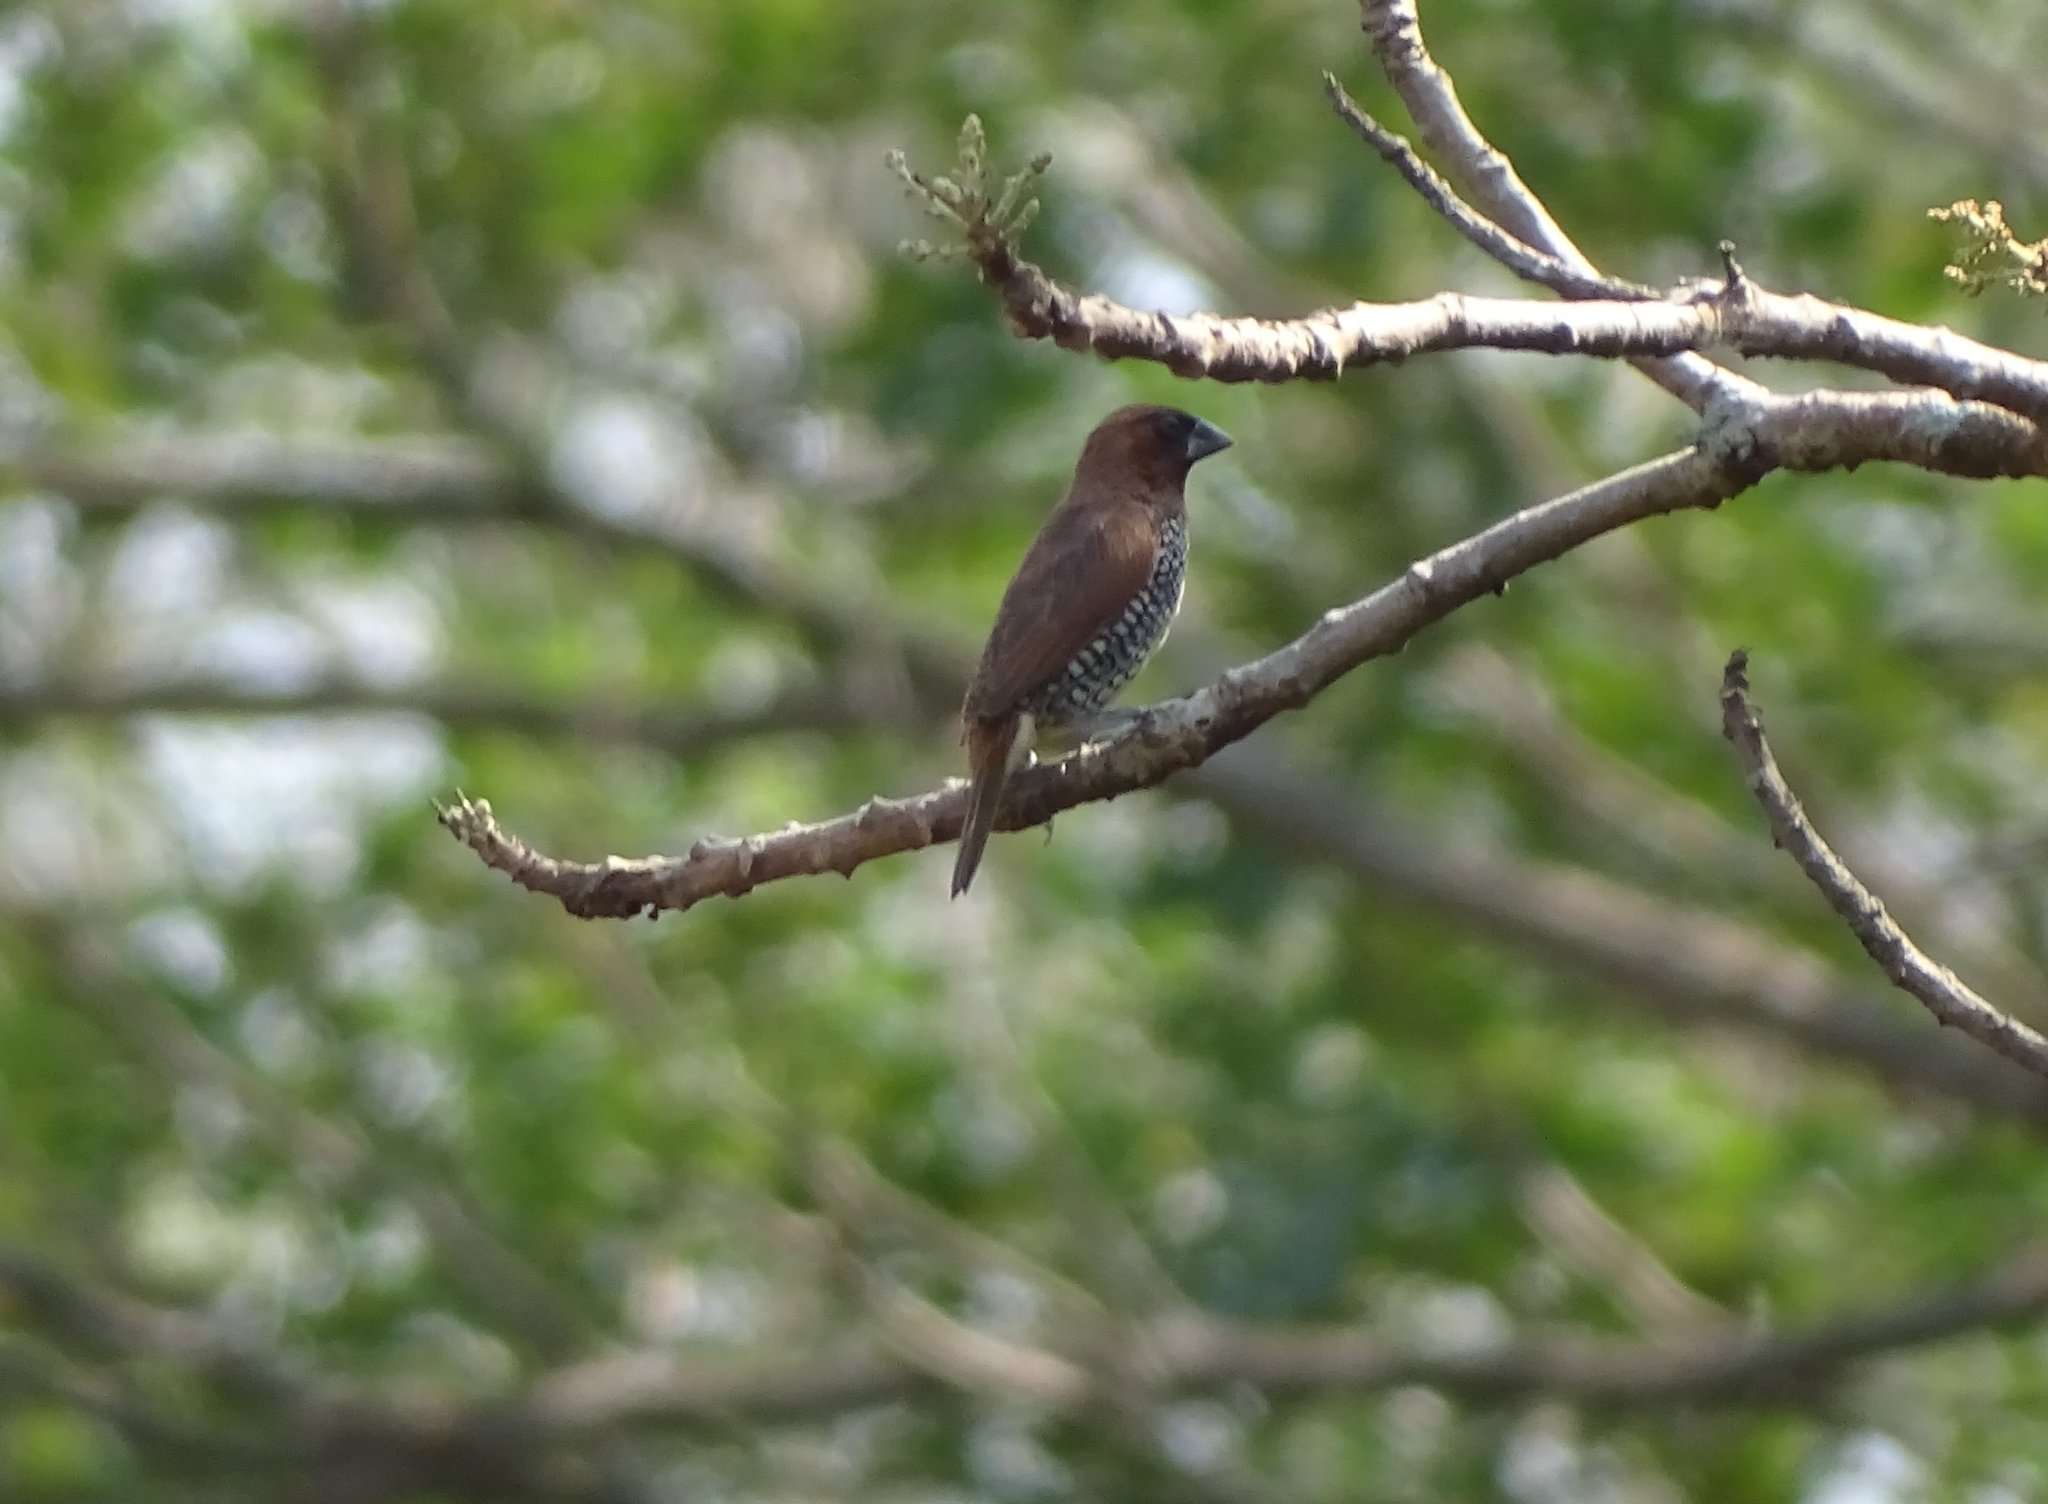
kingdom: Animalia
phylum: Chordata
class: Aves
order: Passeriformes
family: Estrildidae
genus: Lonchura
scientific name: Lonchura punctulata
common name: Scaly-breasted munia
